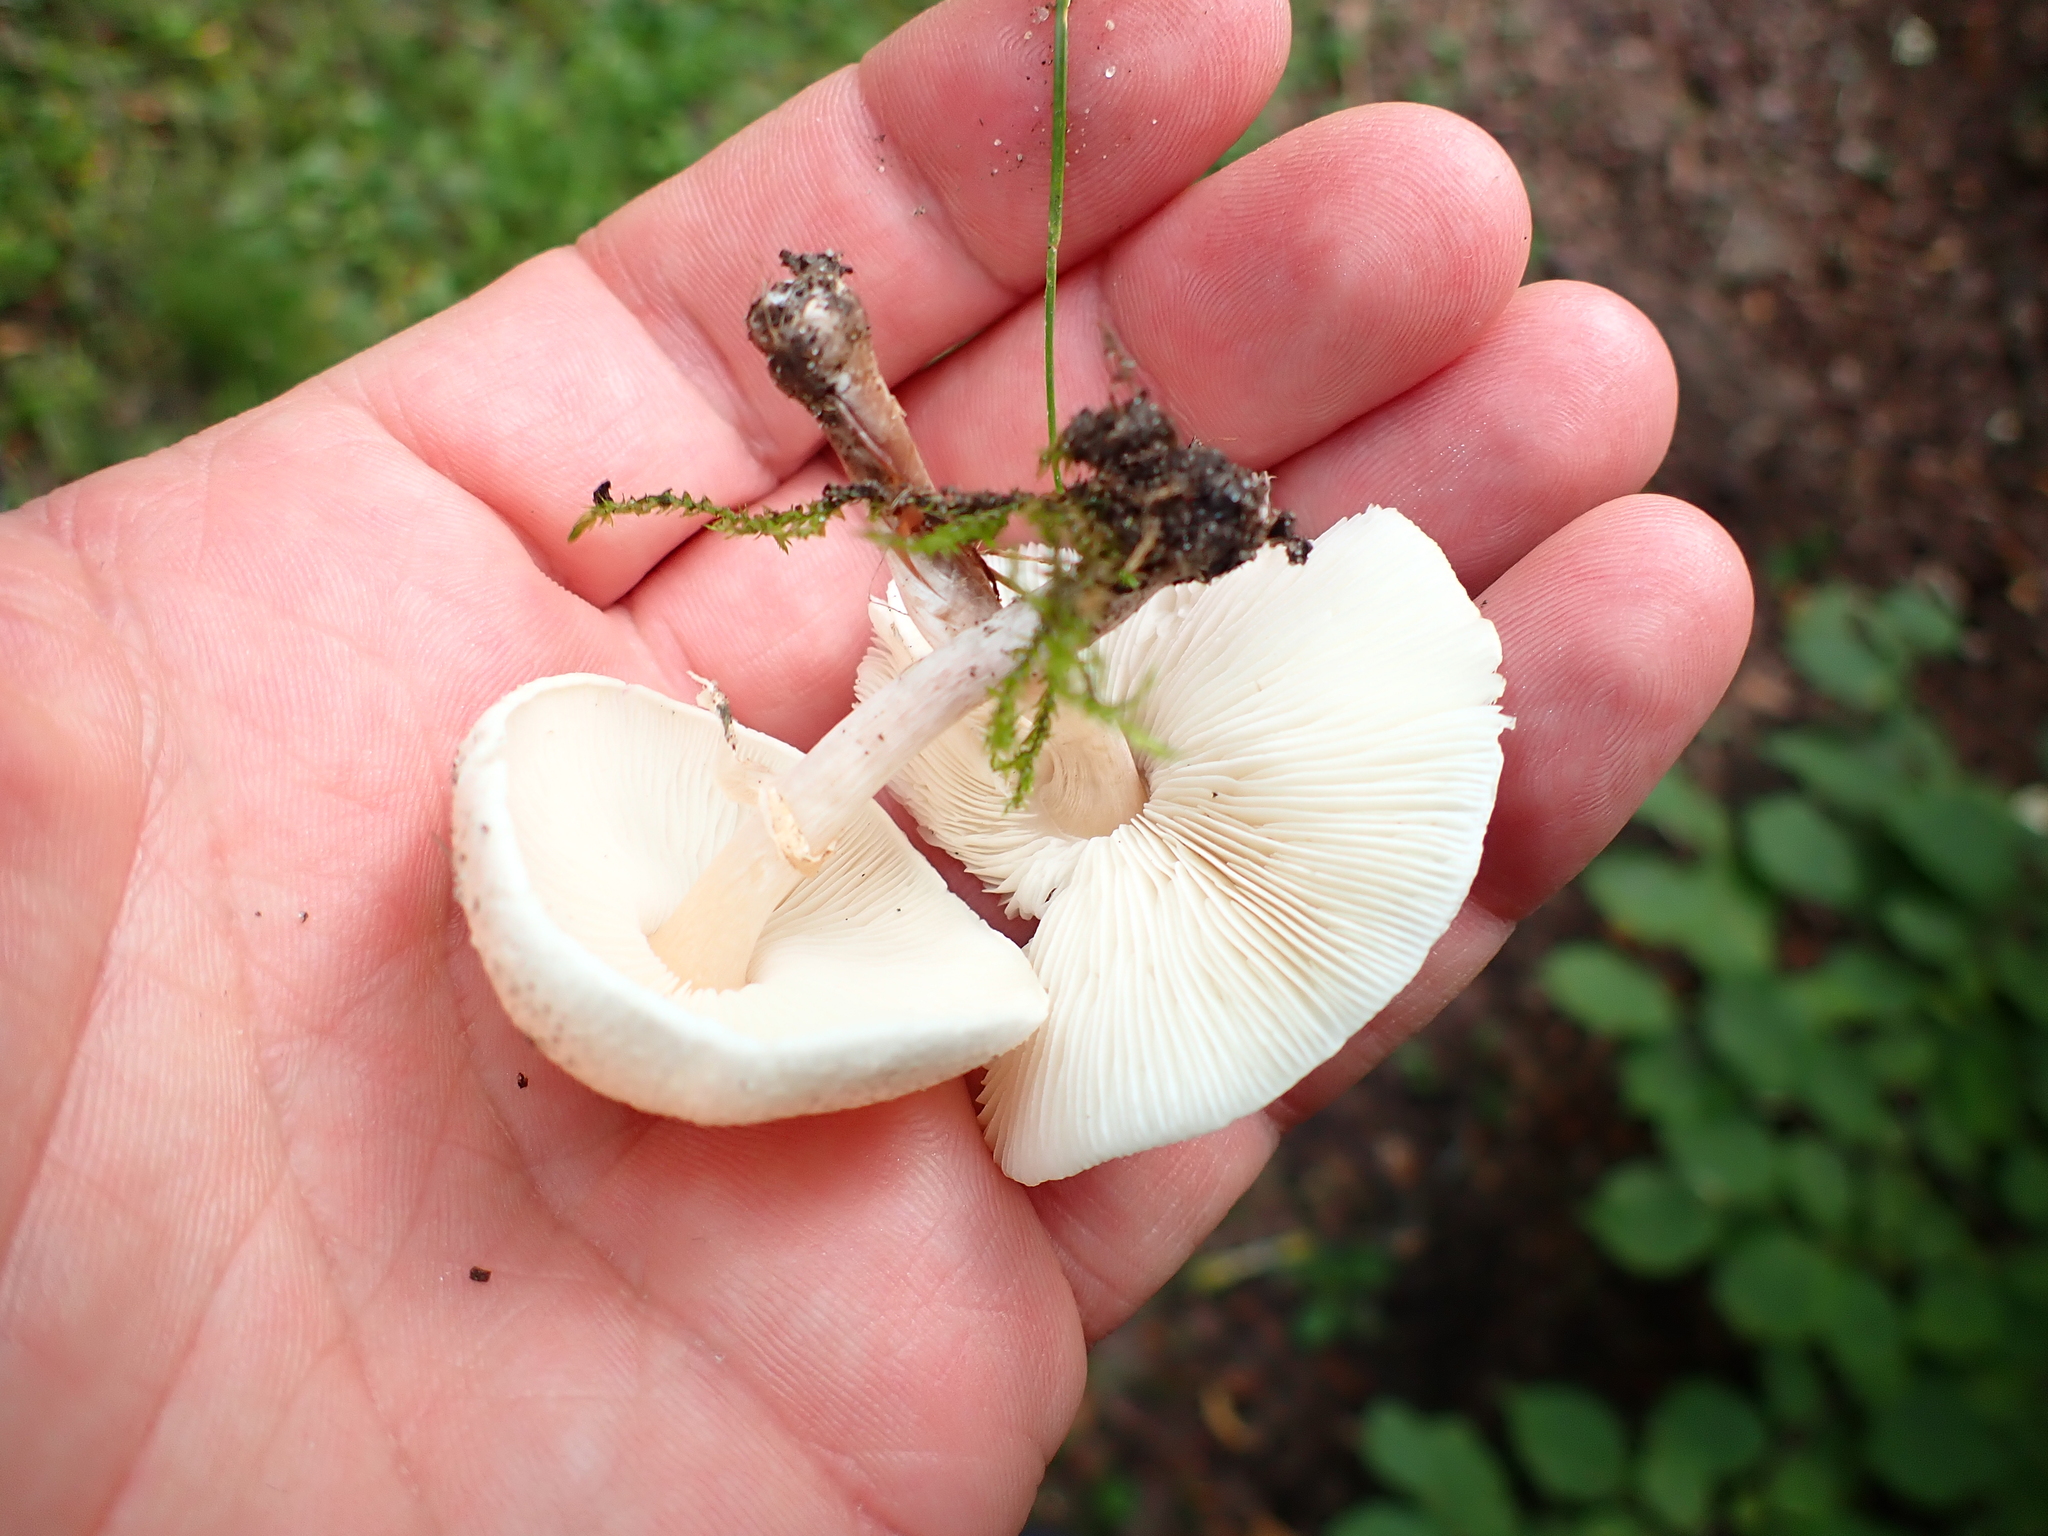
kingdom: Fungi
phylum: Basidiomycota
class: Agaricomycetes
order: Agaricales
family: Agaricaceae
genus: Lepiota
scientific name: Lepiota cristata
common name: Stinking dapperling
